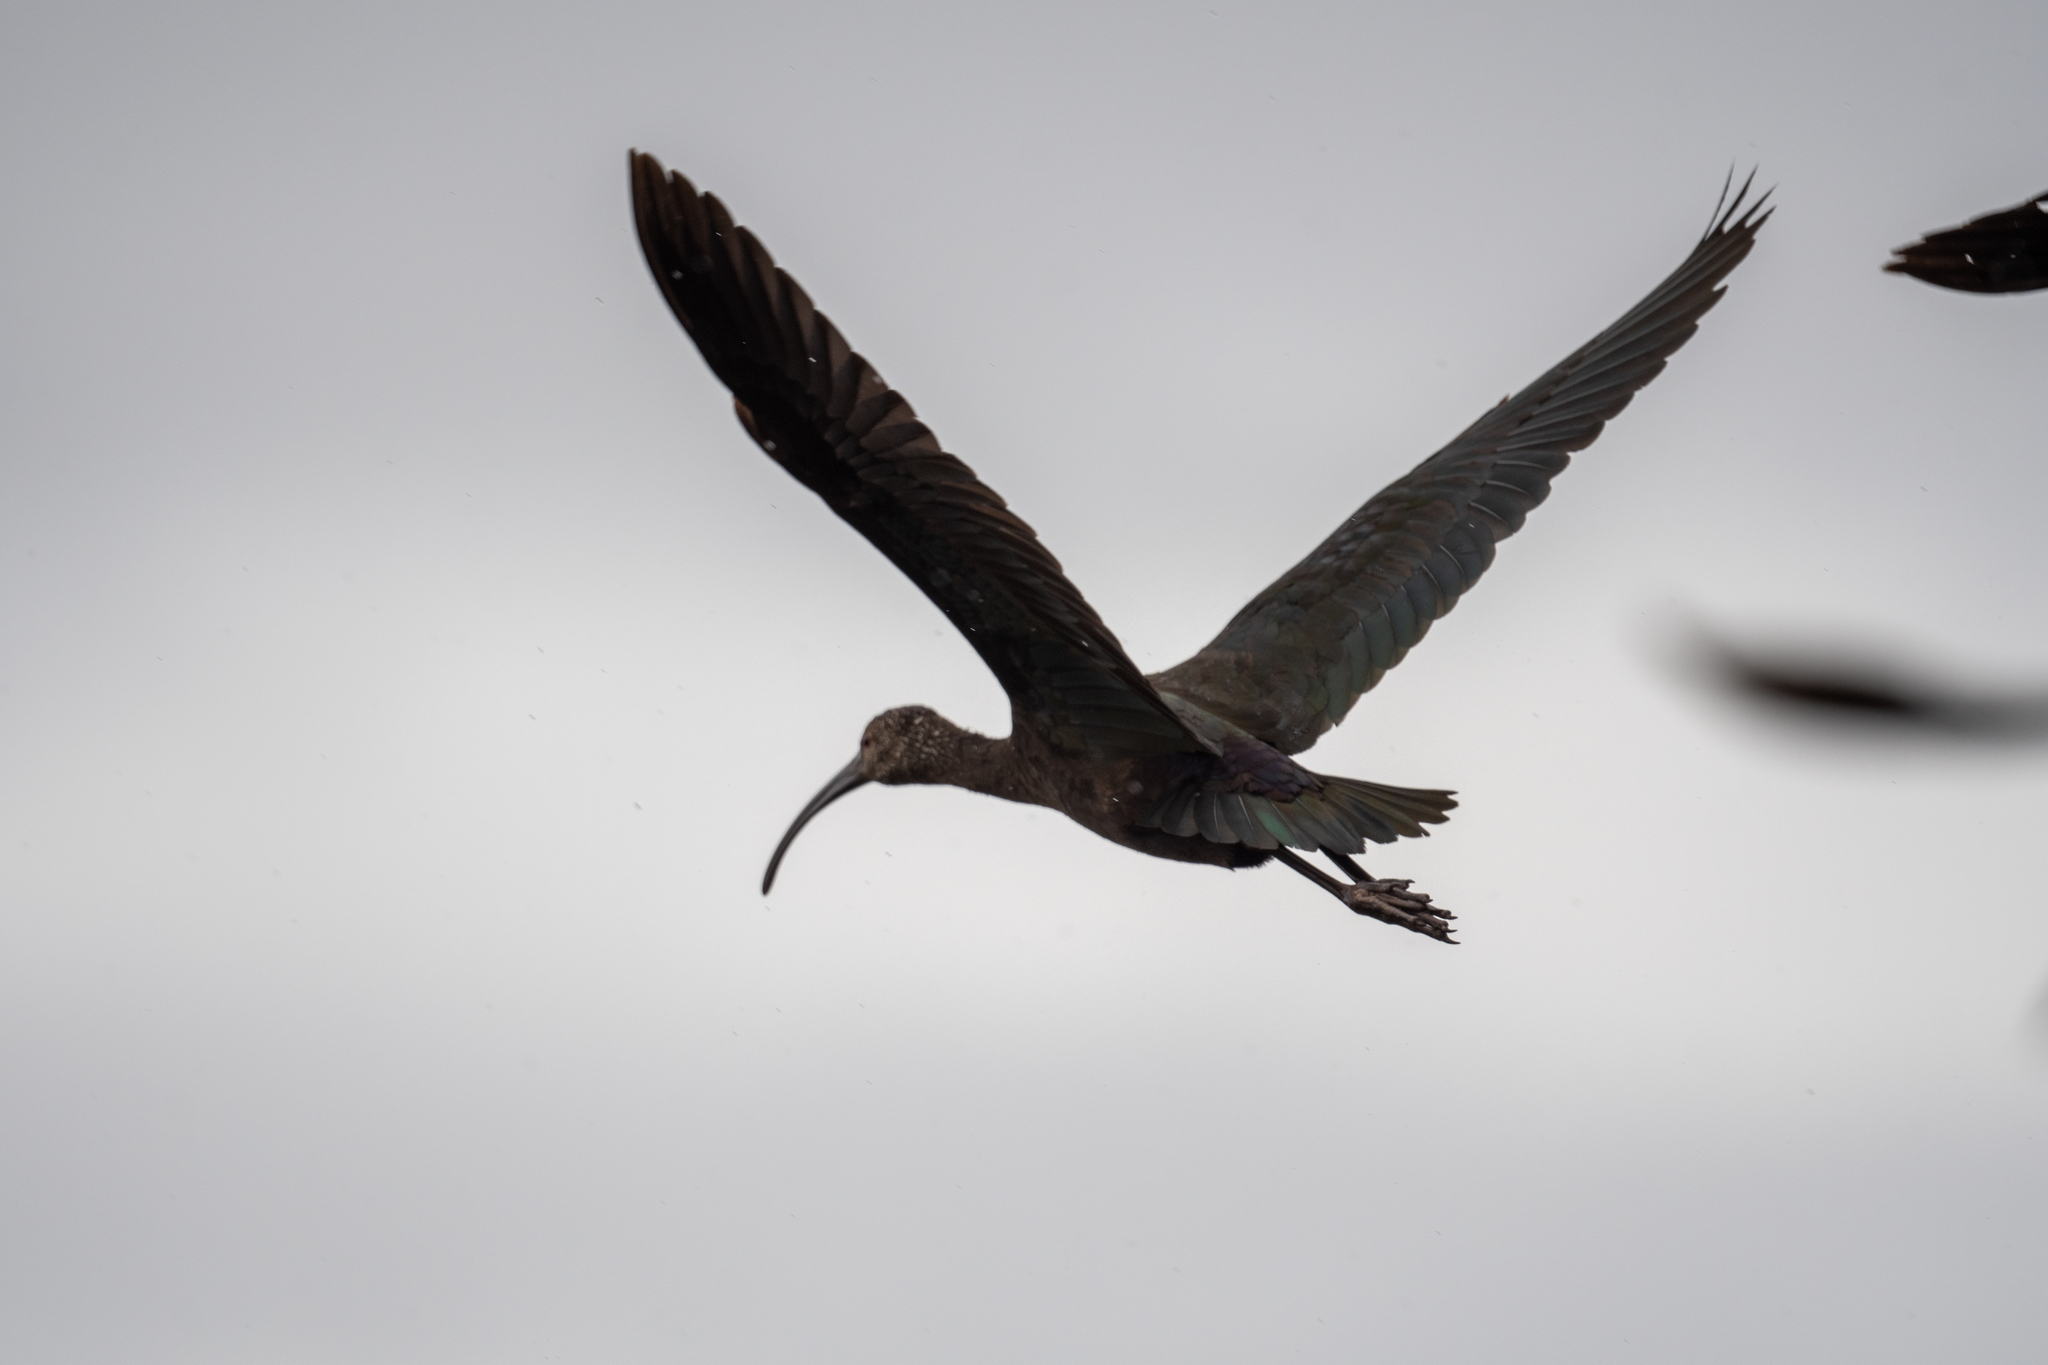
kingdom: Animalia
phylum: Chordata
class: Aves
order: Pelecaniformes
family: Threskiornithidae
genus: Plegadis
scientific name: Plegadis chihi
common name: White-faced ibis
